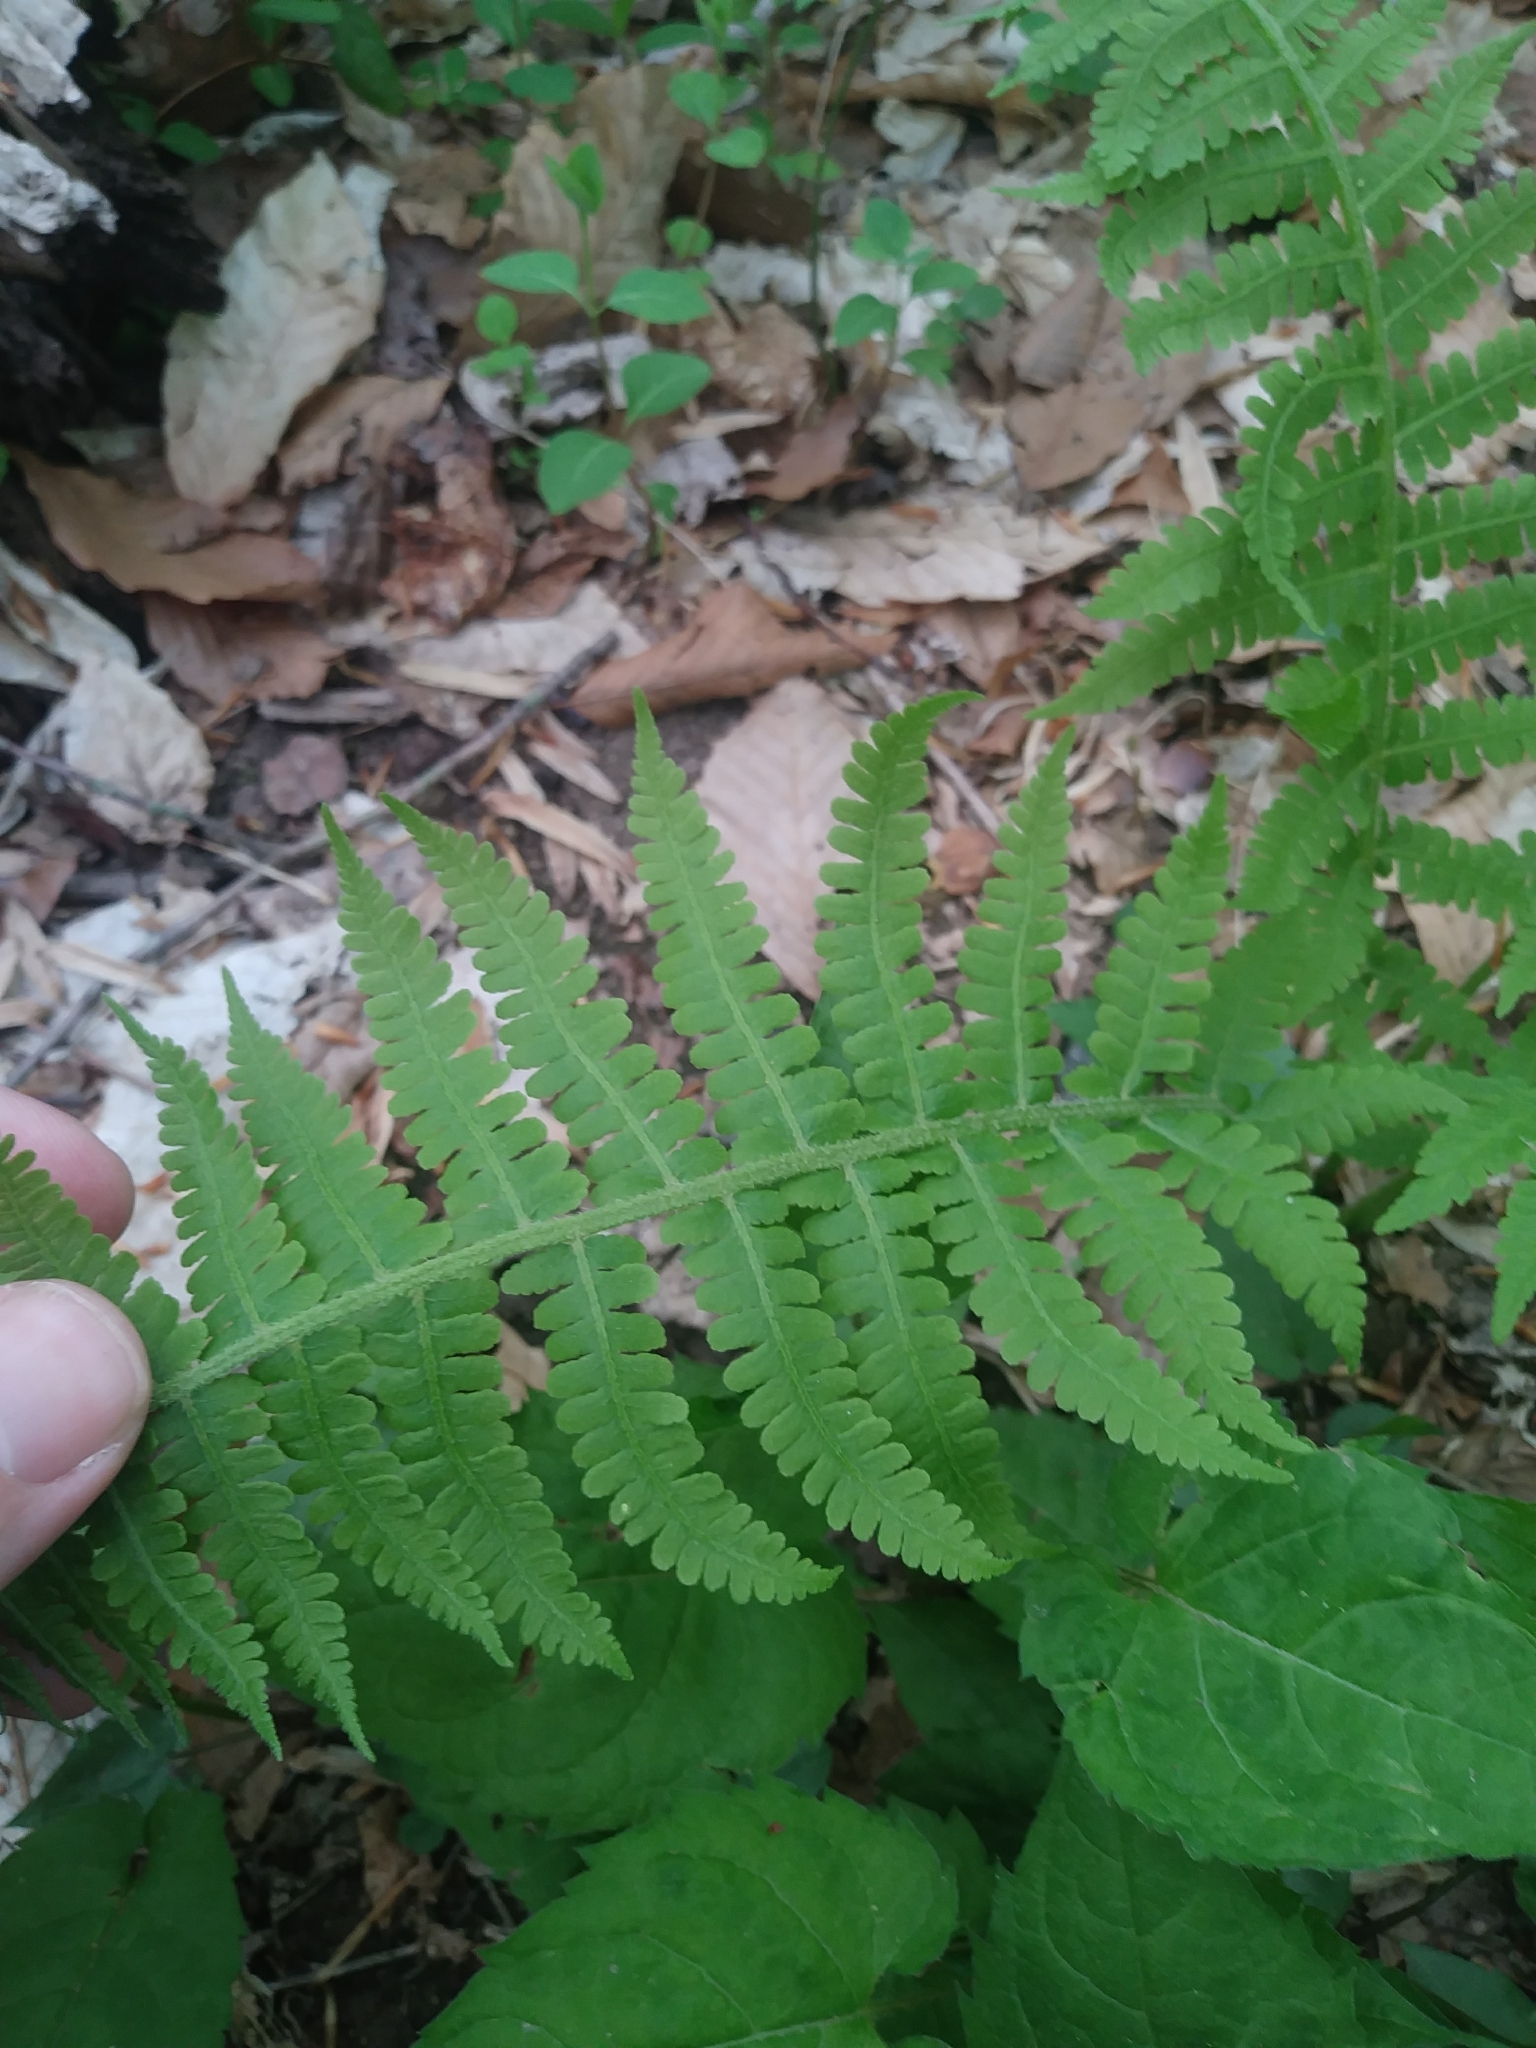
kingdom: Plantae
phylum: Tracheophyta
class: Polypodiopsida
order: Polypodiales
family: Athyriaceae
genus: Deparia
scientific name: Deparia acrostichoides
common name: Silver false spleenwort
